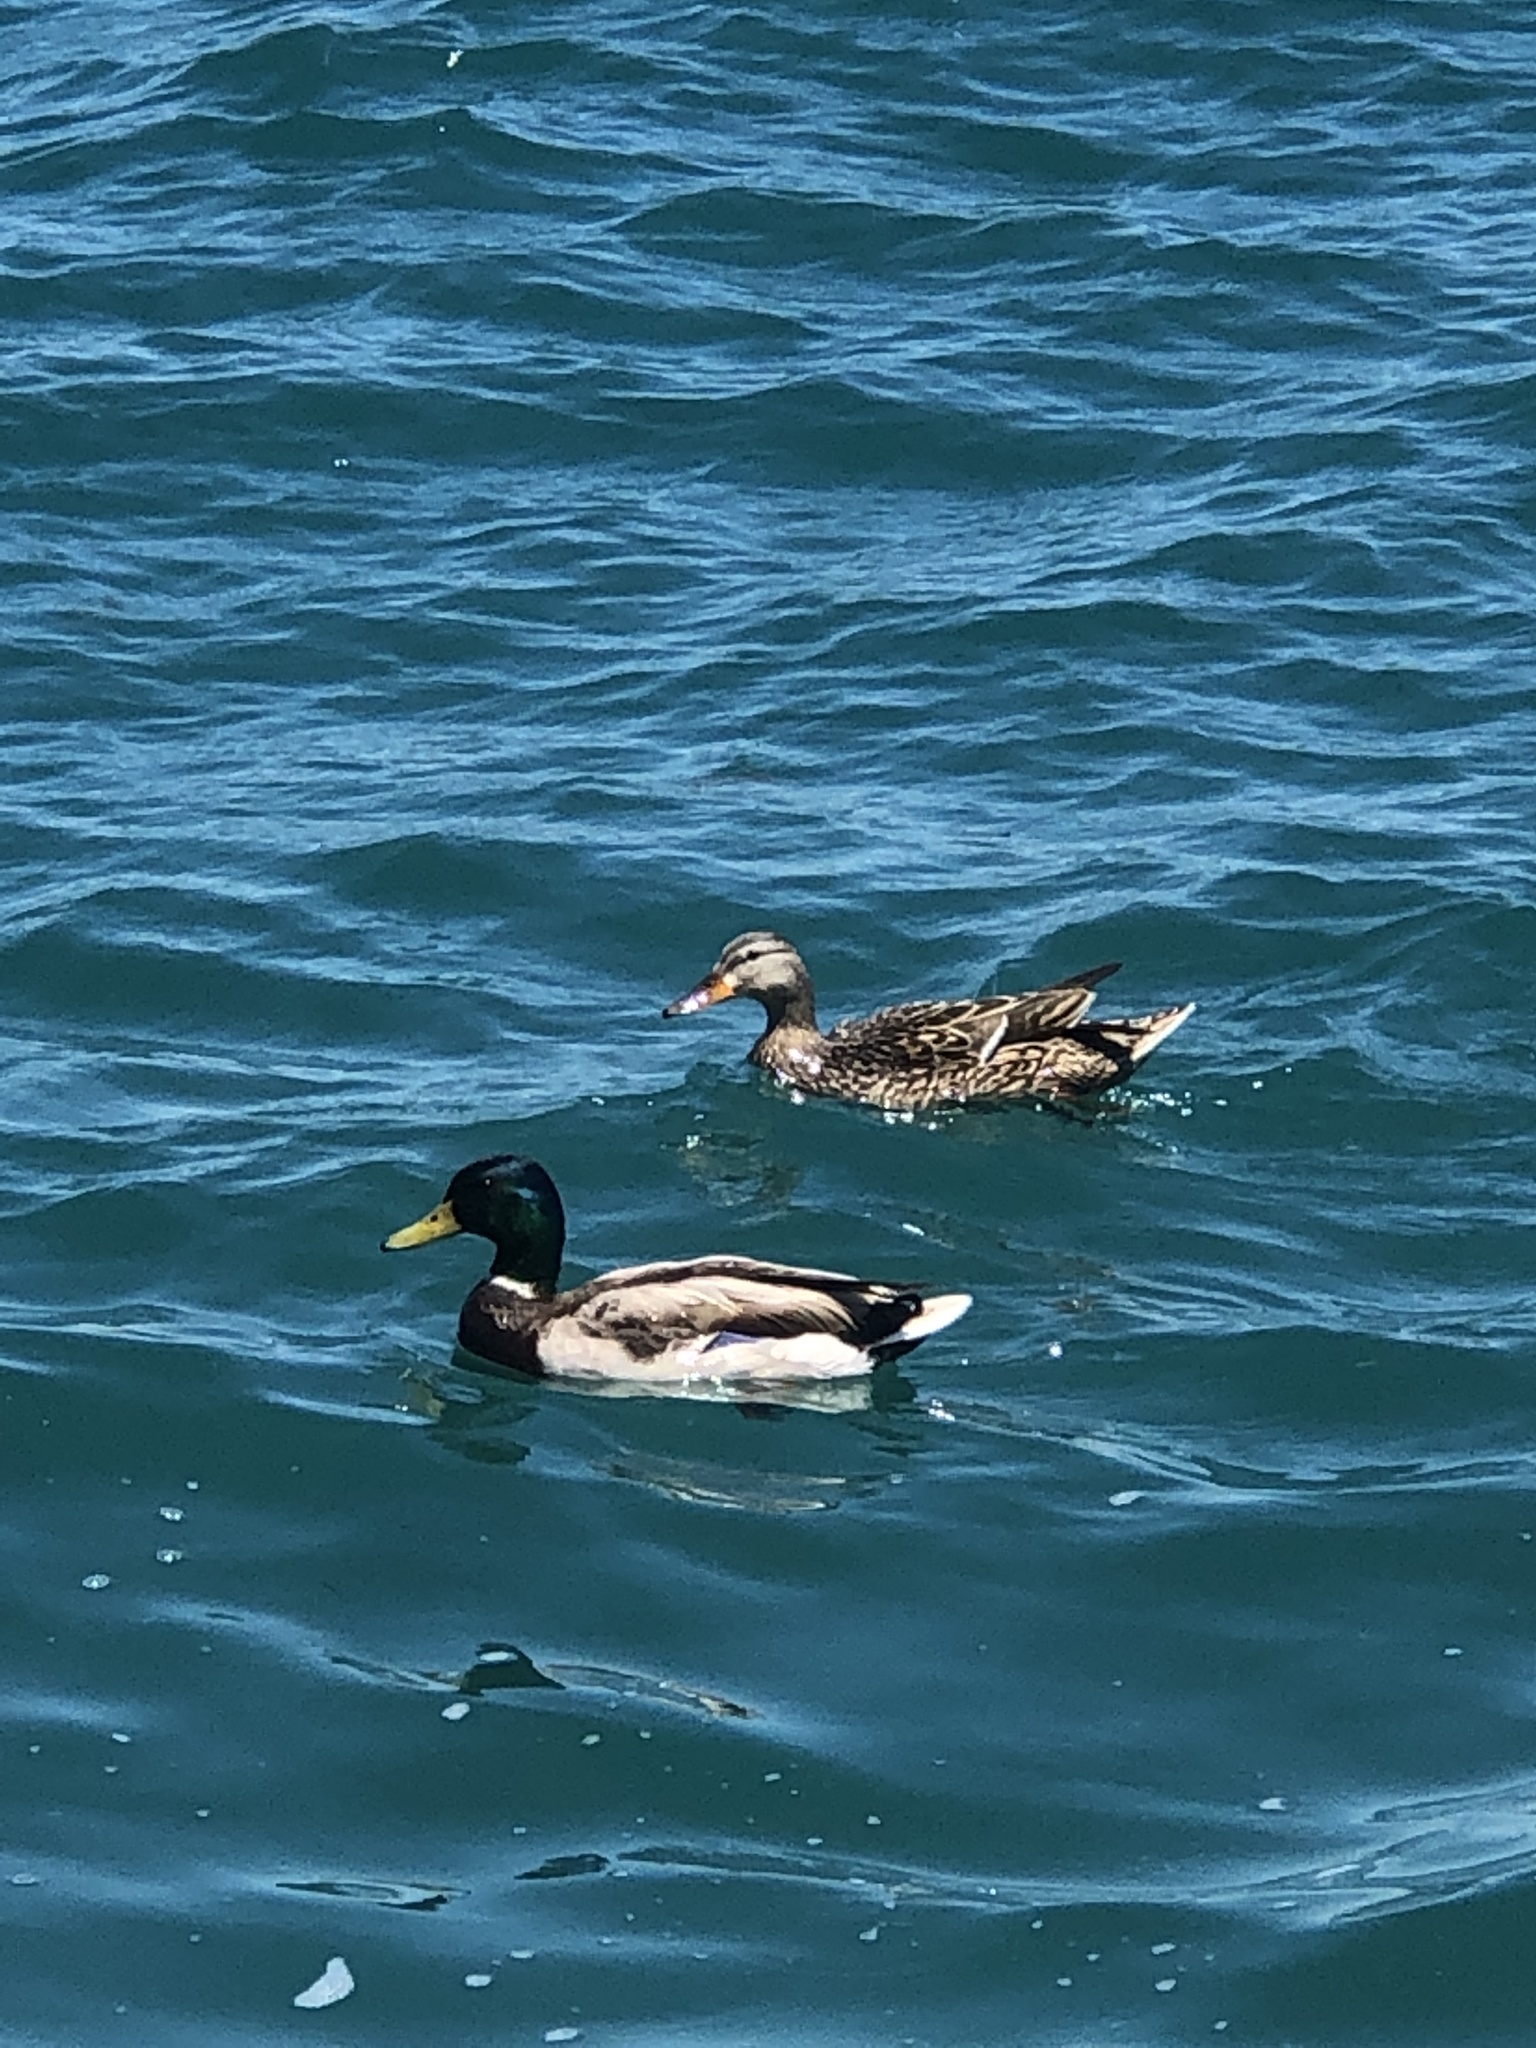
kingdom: Animalia
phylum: Chordata
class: Aves
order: Anseriformes
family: Anatidae
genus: Anas
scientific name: Anas platyrhynchos
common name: Mallard
